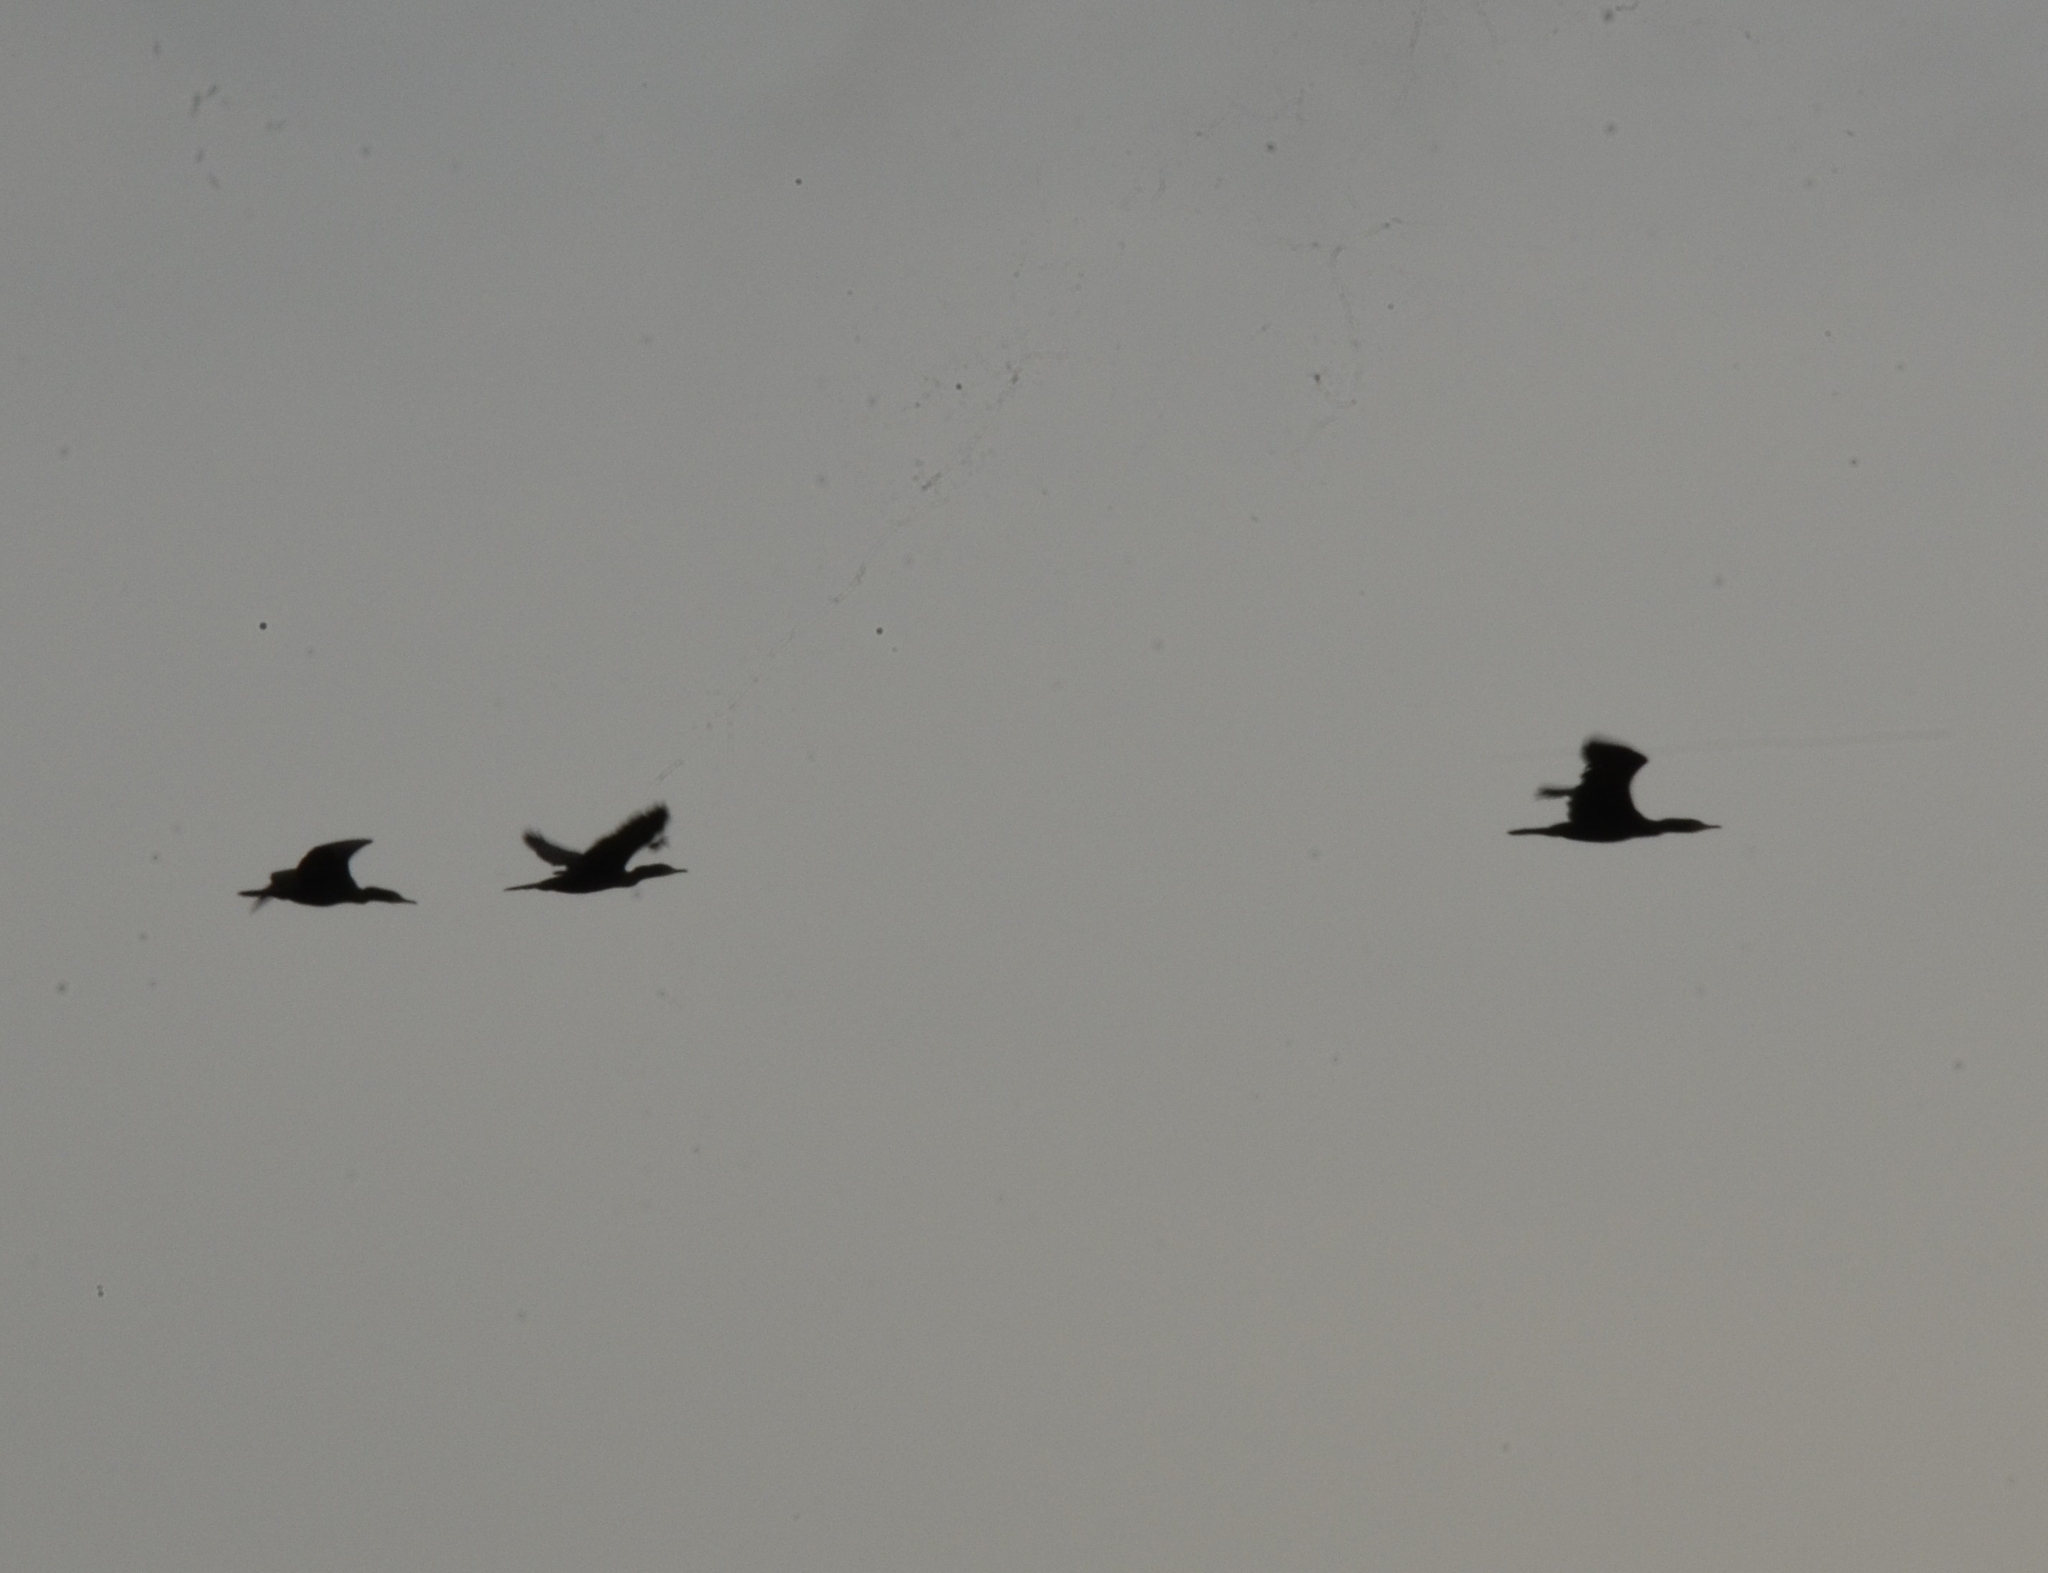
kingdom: Animalia
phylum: Chordata
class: Aves
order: Suliformes
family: Phalacrocoracidae
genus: Phalacrocorax
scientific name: Phalacrocorax fuscicollis
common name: Indian cormorant
